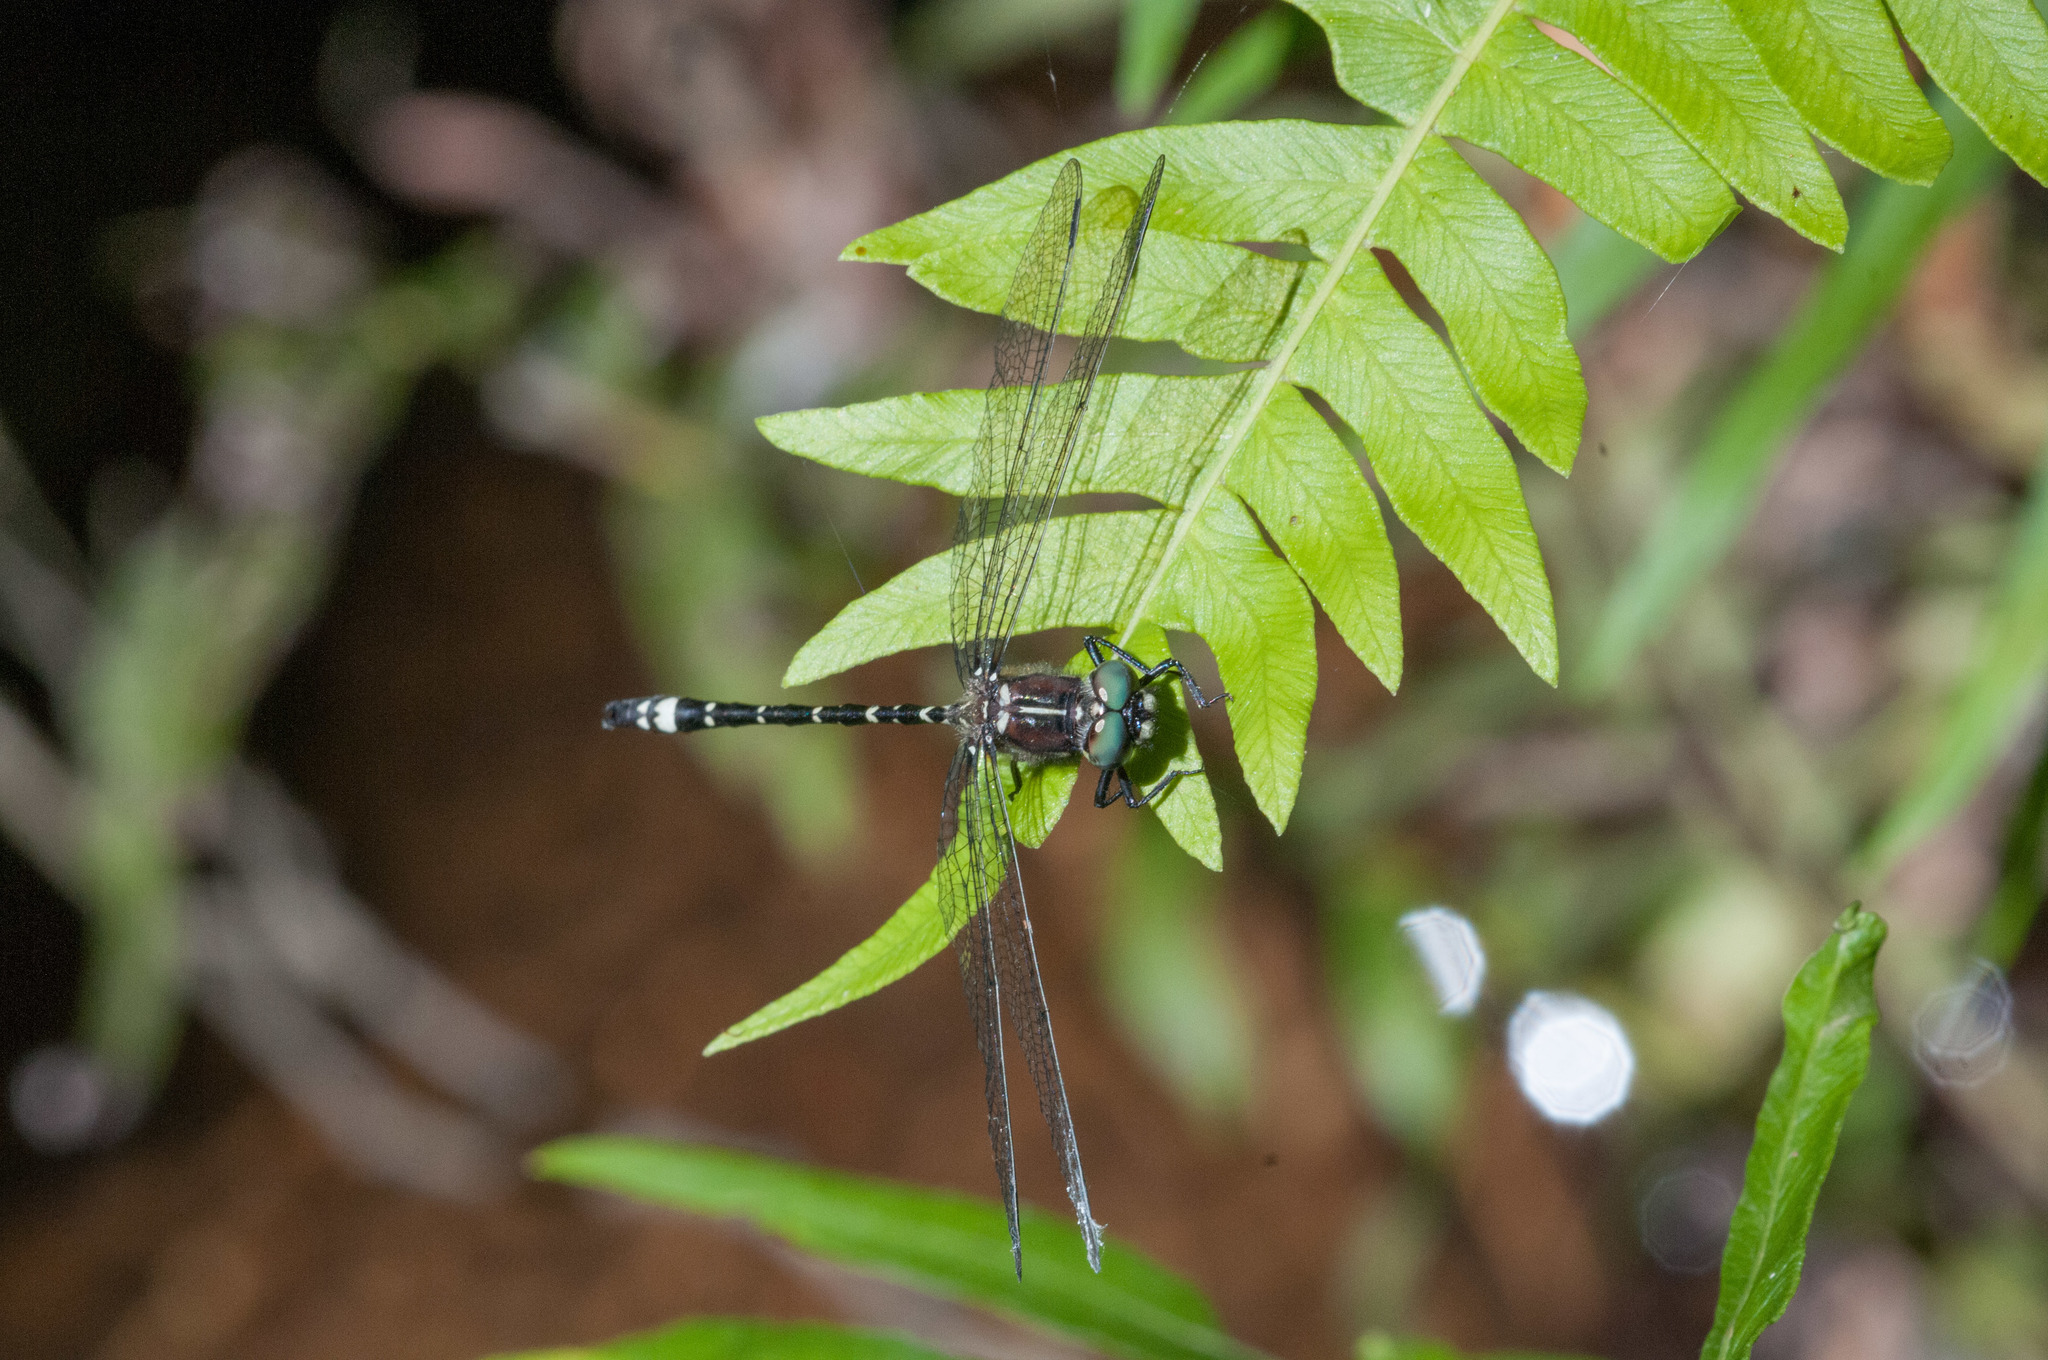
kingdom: Animalia
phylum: Arthropoda
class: Insecta
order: Odonata
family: Synthemistidae
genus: Eusynthemis
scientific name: Eusynthemis brevistyla
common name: Small tigertail
